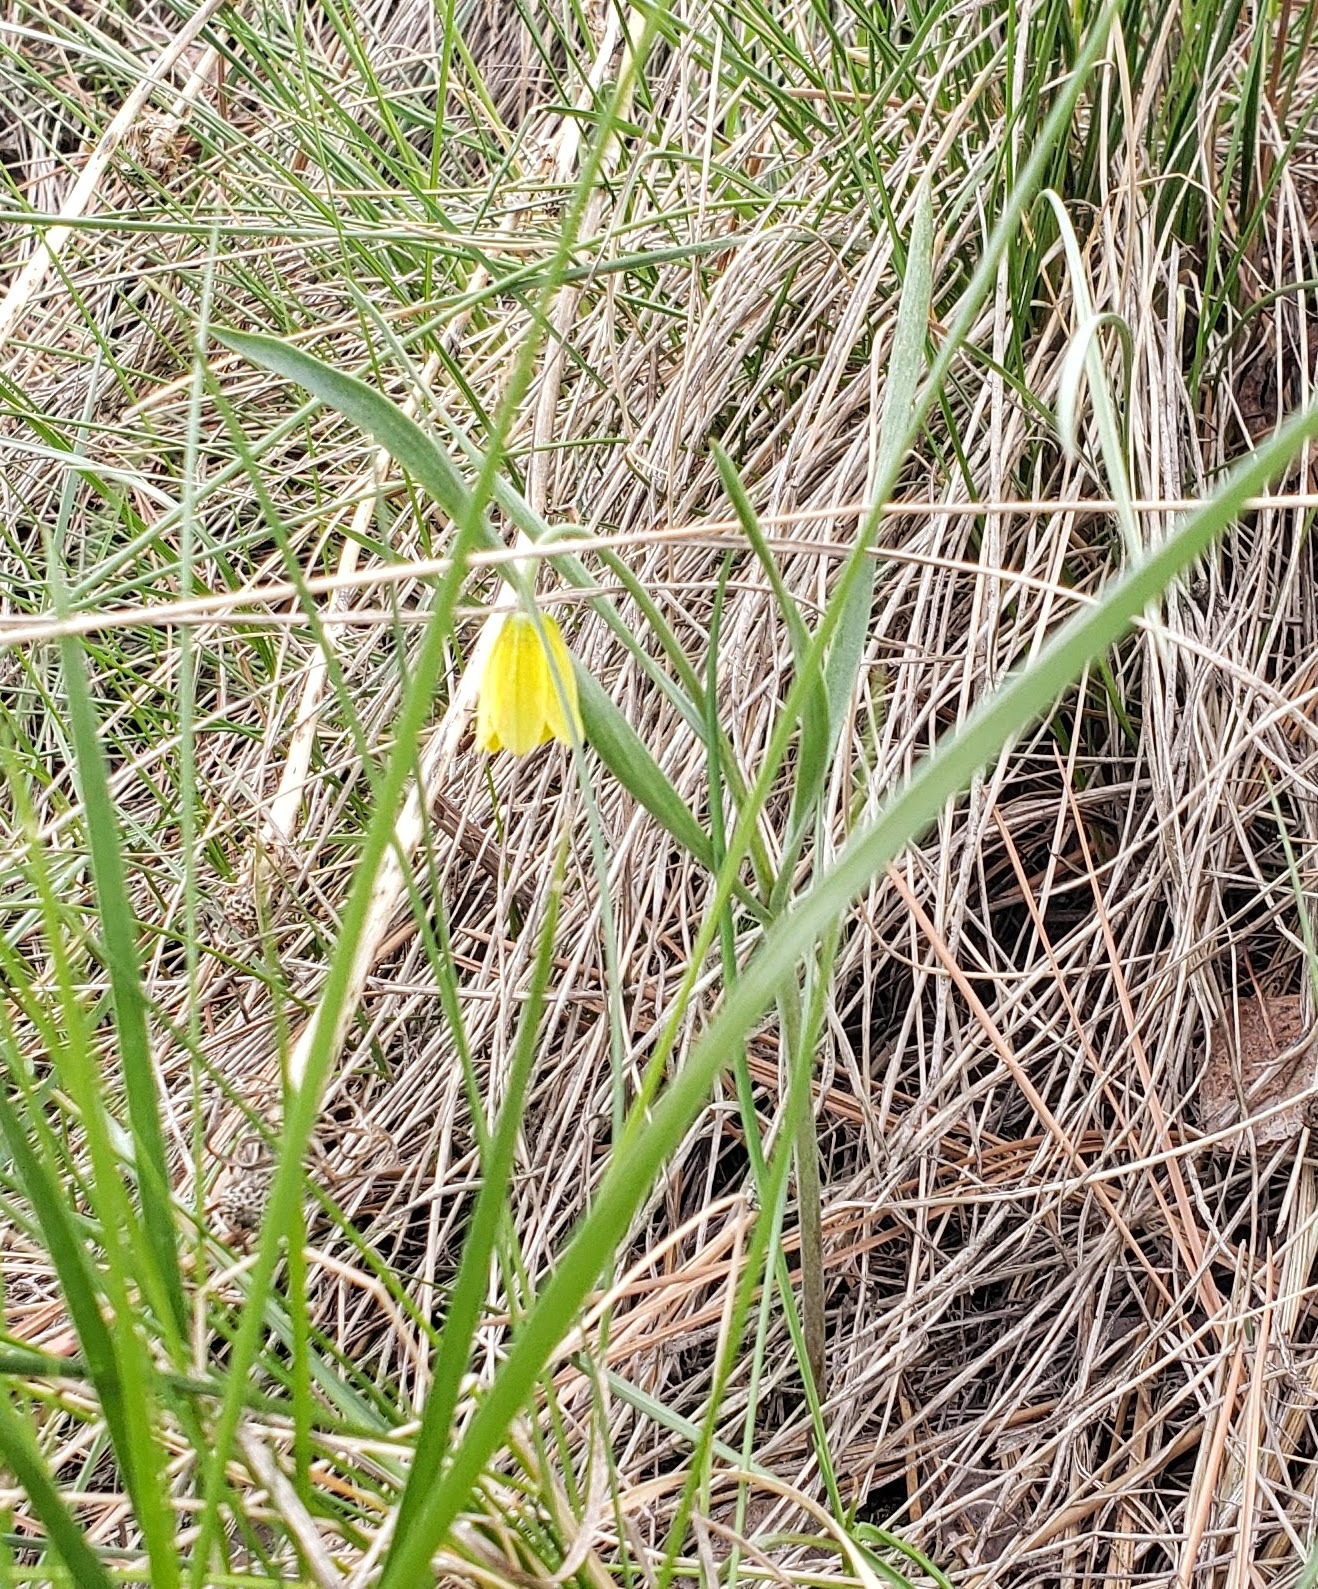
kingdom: Plantae
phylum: Tracheophyta
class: Liliopsida
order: Liliales
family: Liliaceae
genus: Fritillaria
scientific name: Fritillaria pudica
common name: Yellow fritillary
